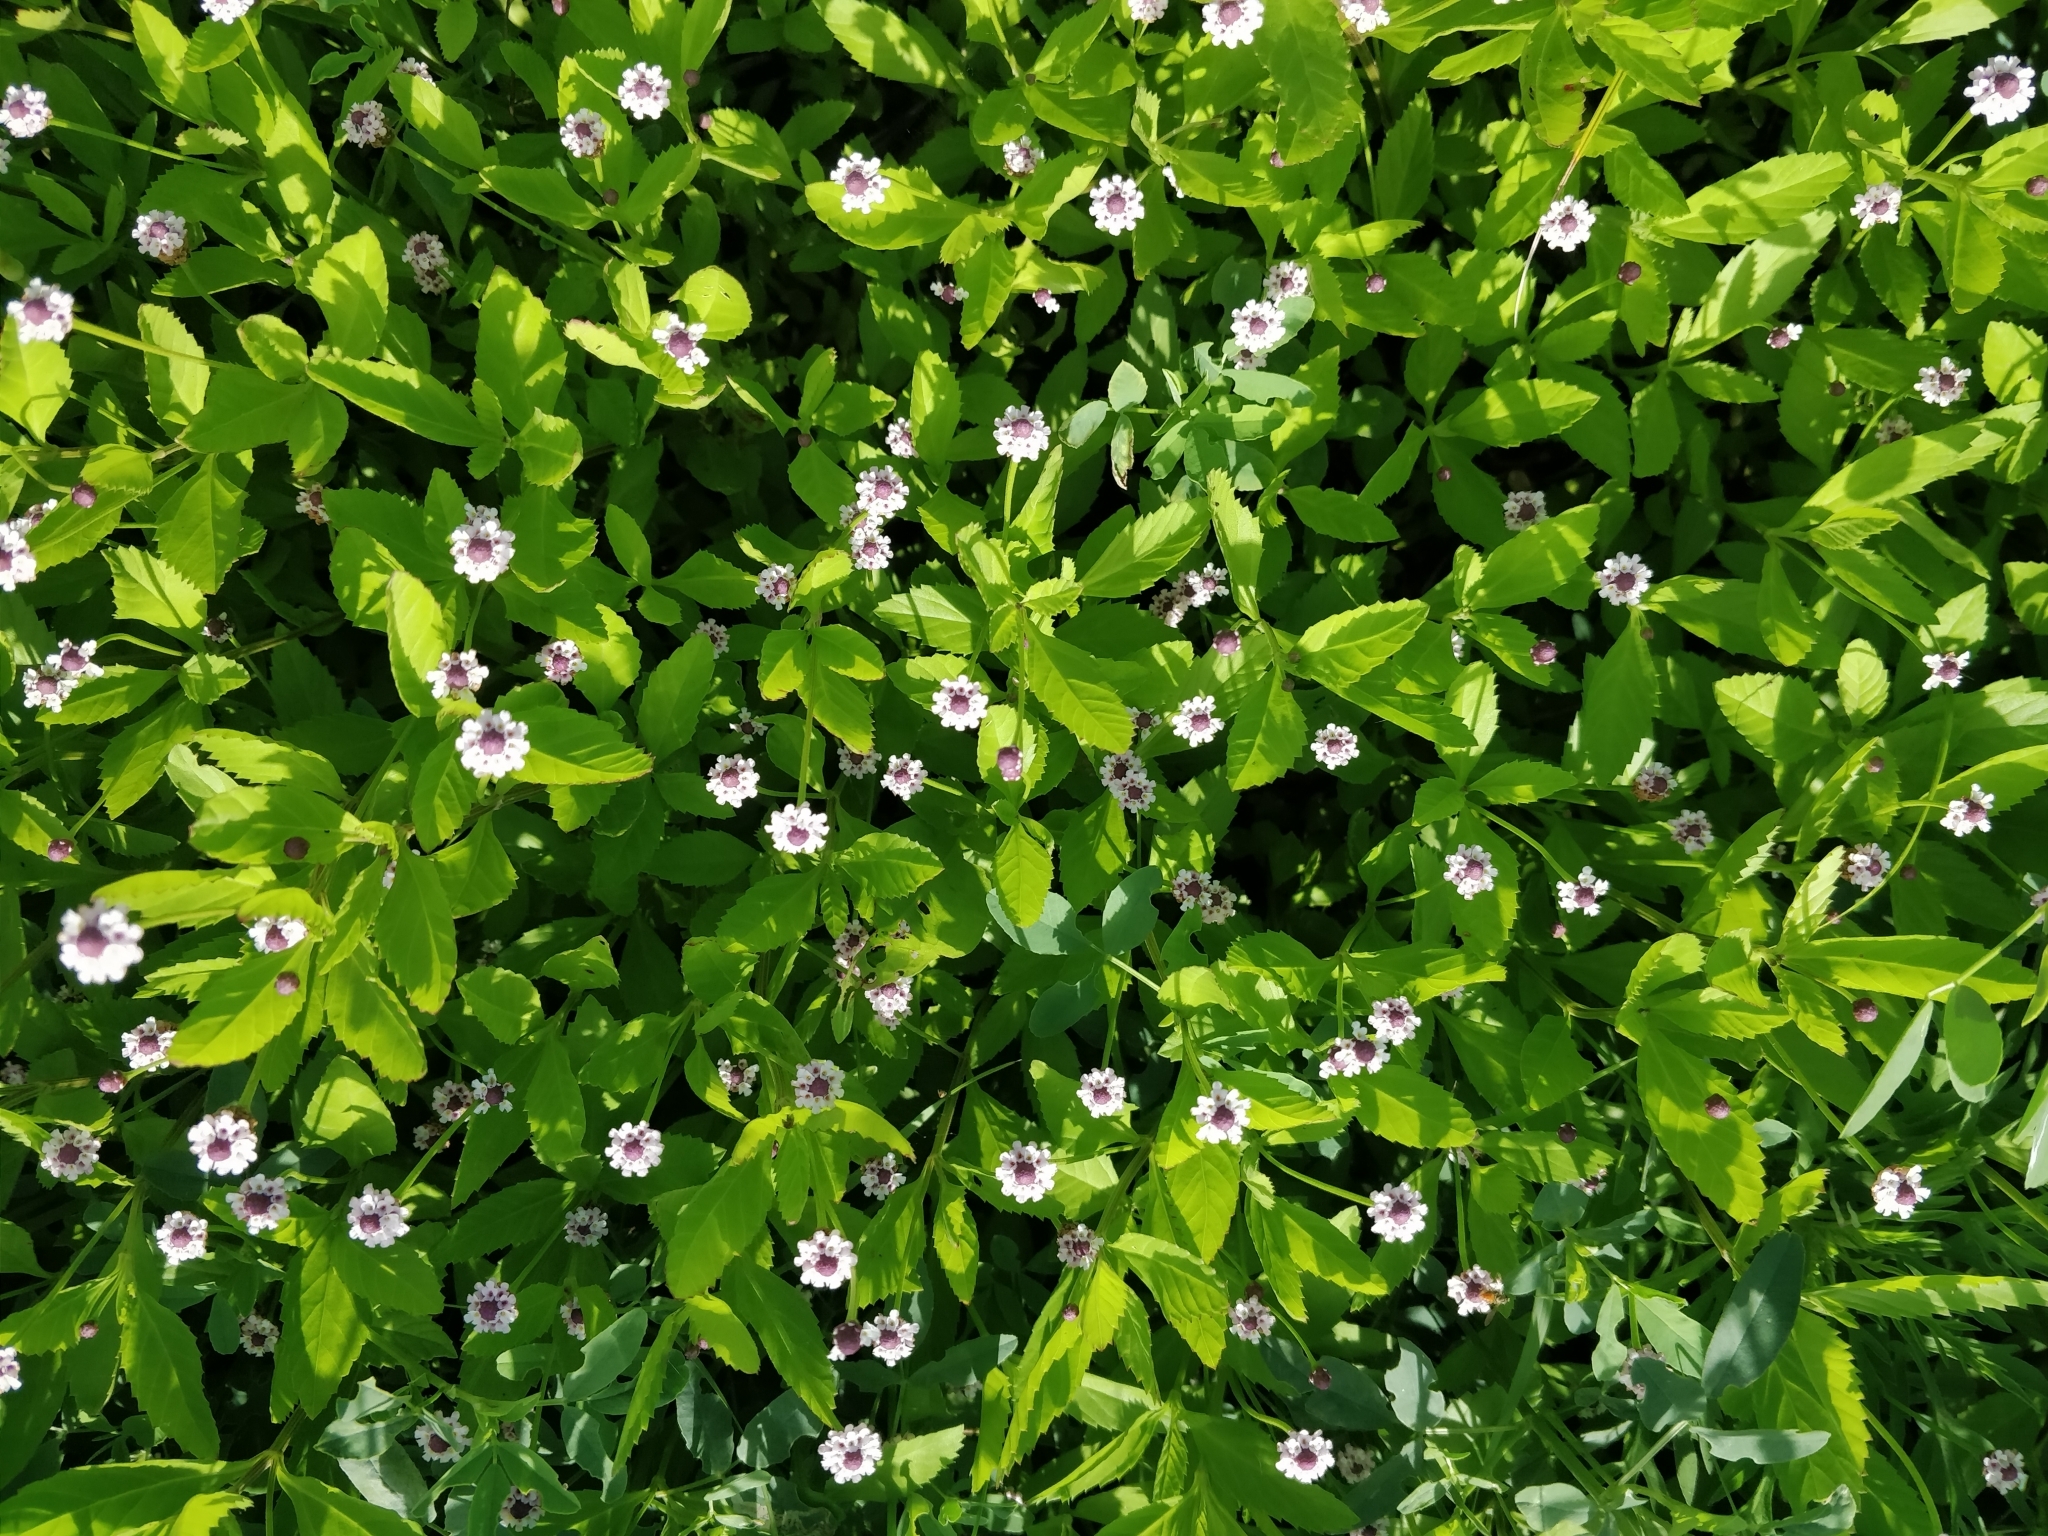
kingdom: Plantae
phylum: Tracheophyta
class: Magnoliopsida
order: Lamiales
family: Verbenaceae
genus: Phyla
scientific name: Phyla lanceolata
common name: Northern fogfruit
